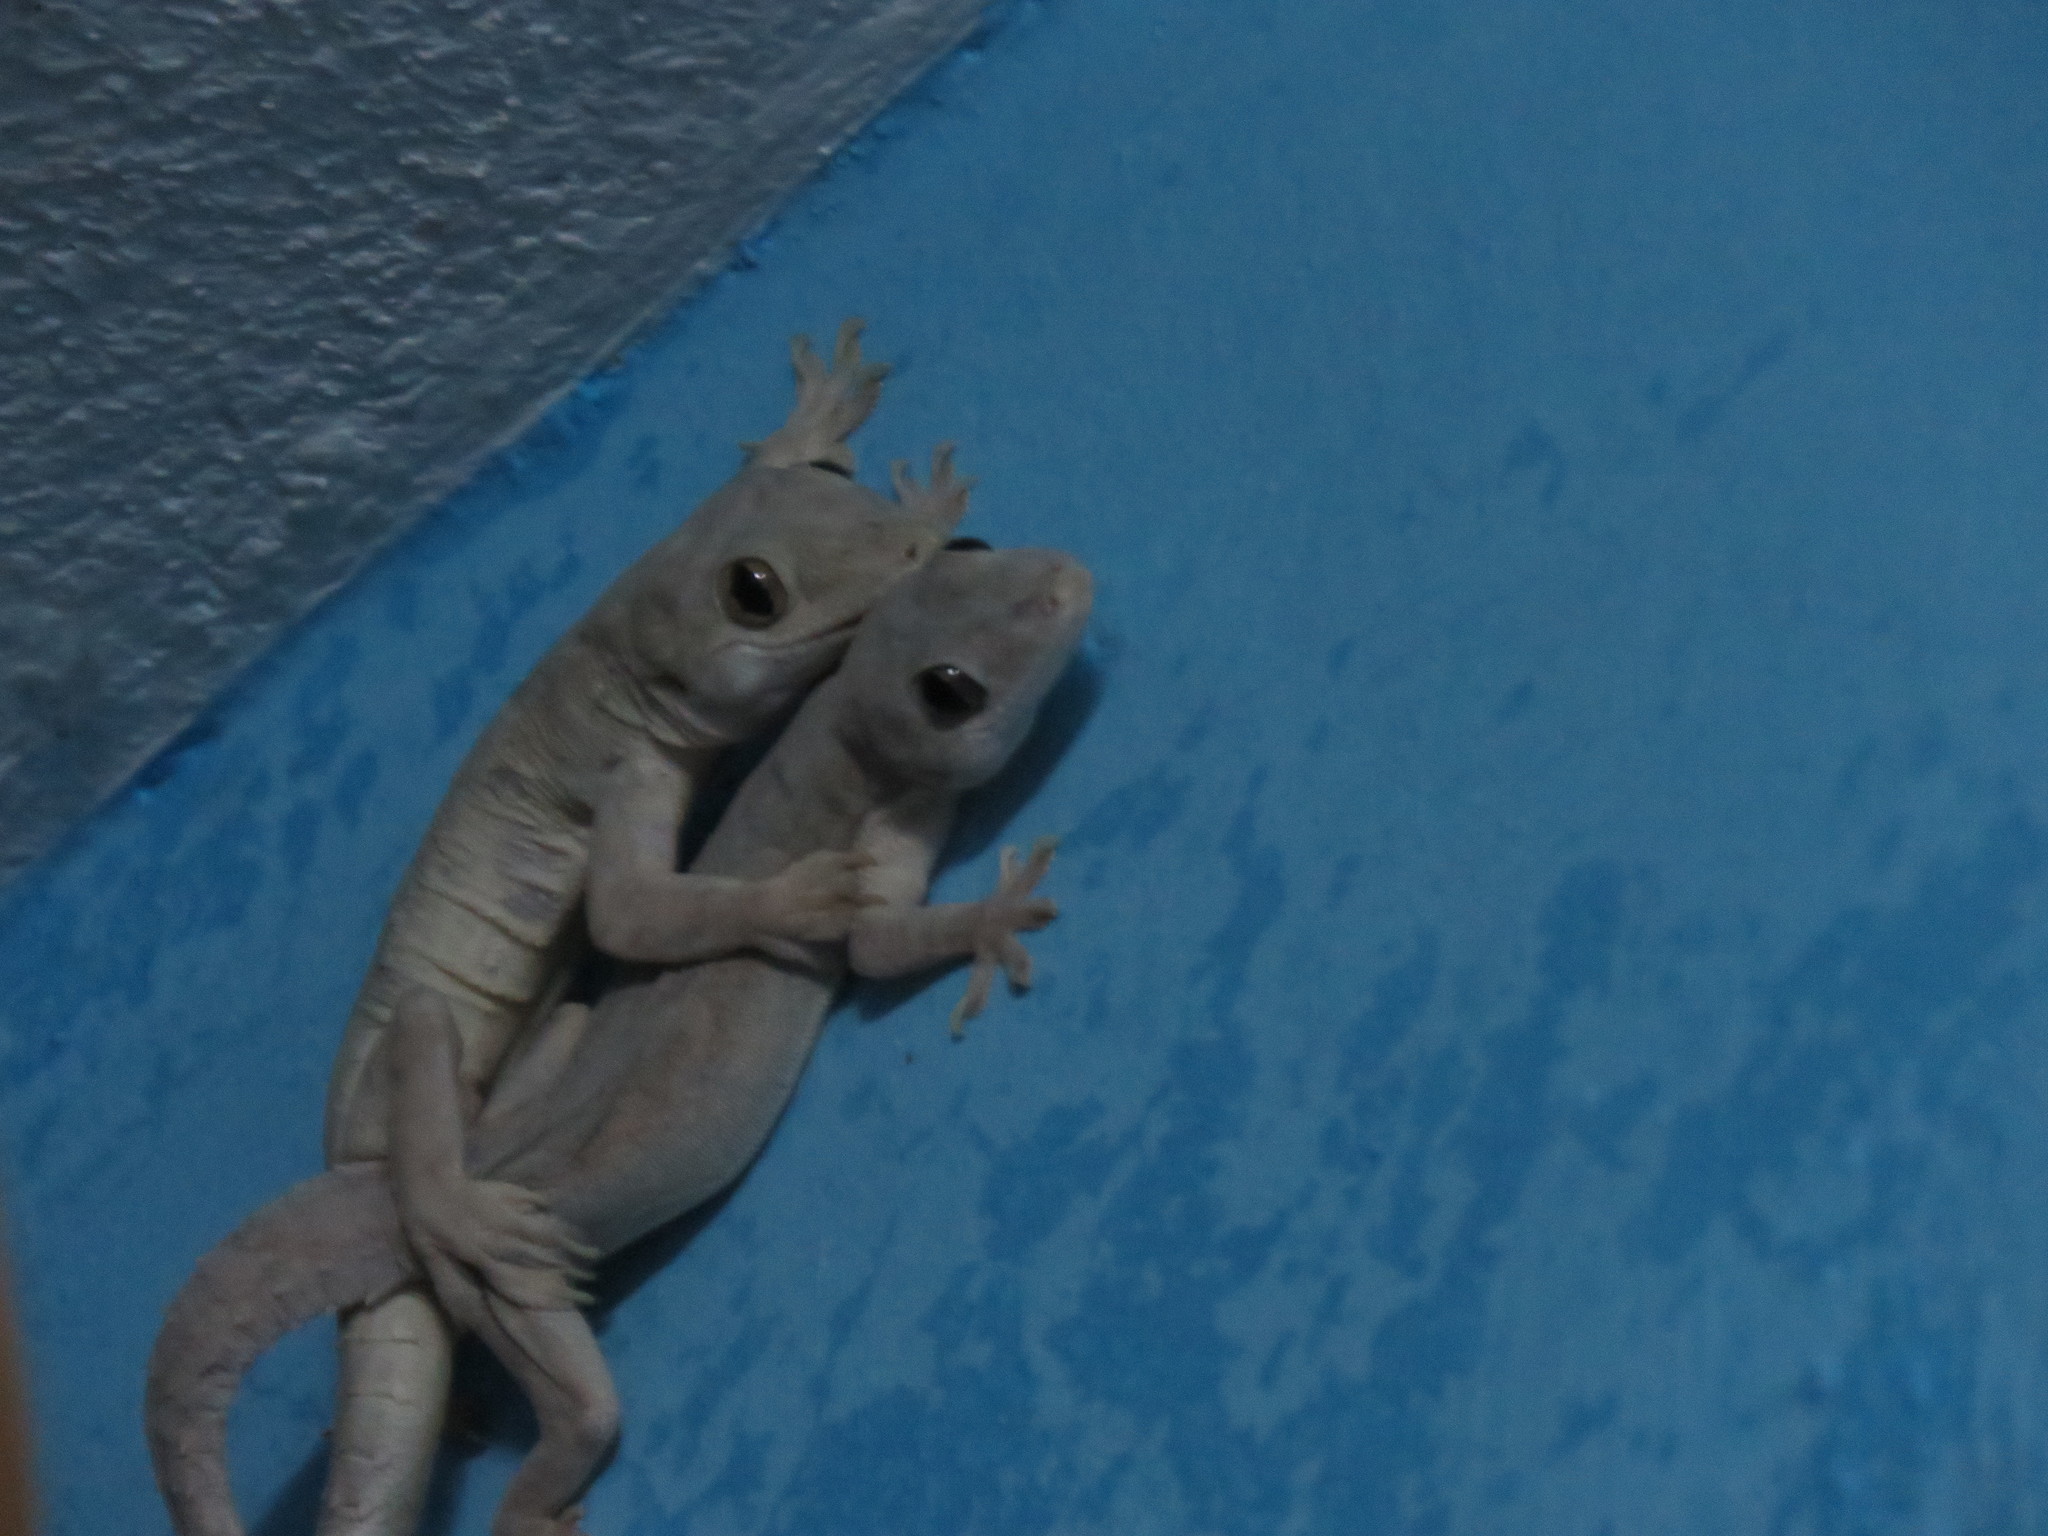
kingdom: Animalia
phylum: Chordata
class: Squamata
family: Gekkonidae
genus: Hemidactylus
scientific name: Hemidactylus flaviviridis
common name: Northern house gecko
